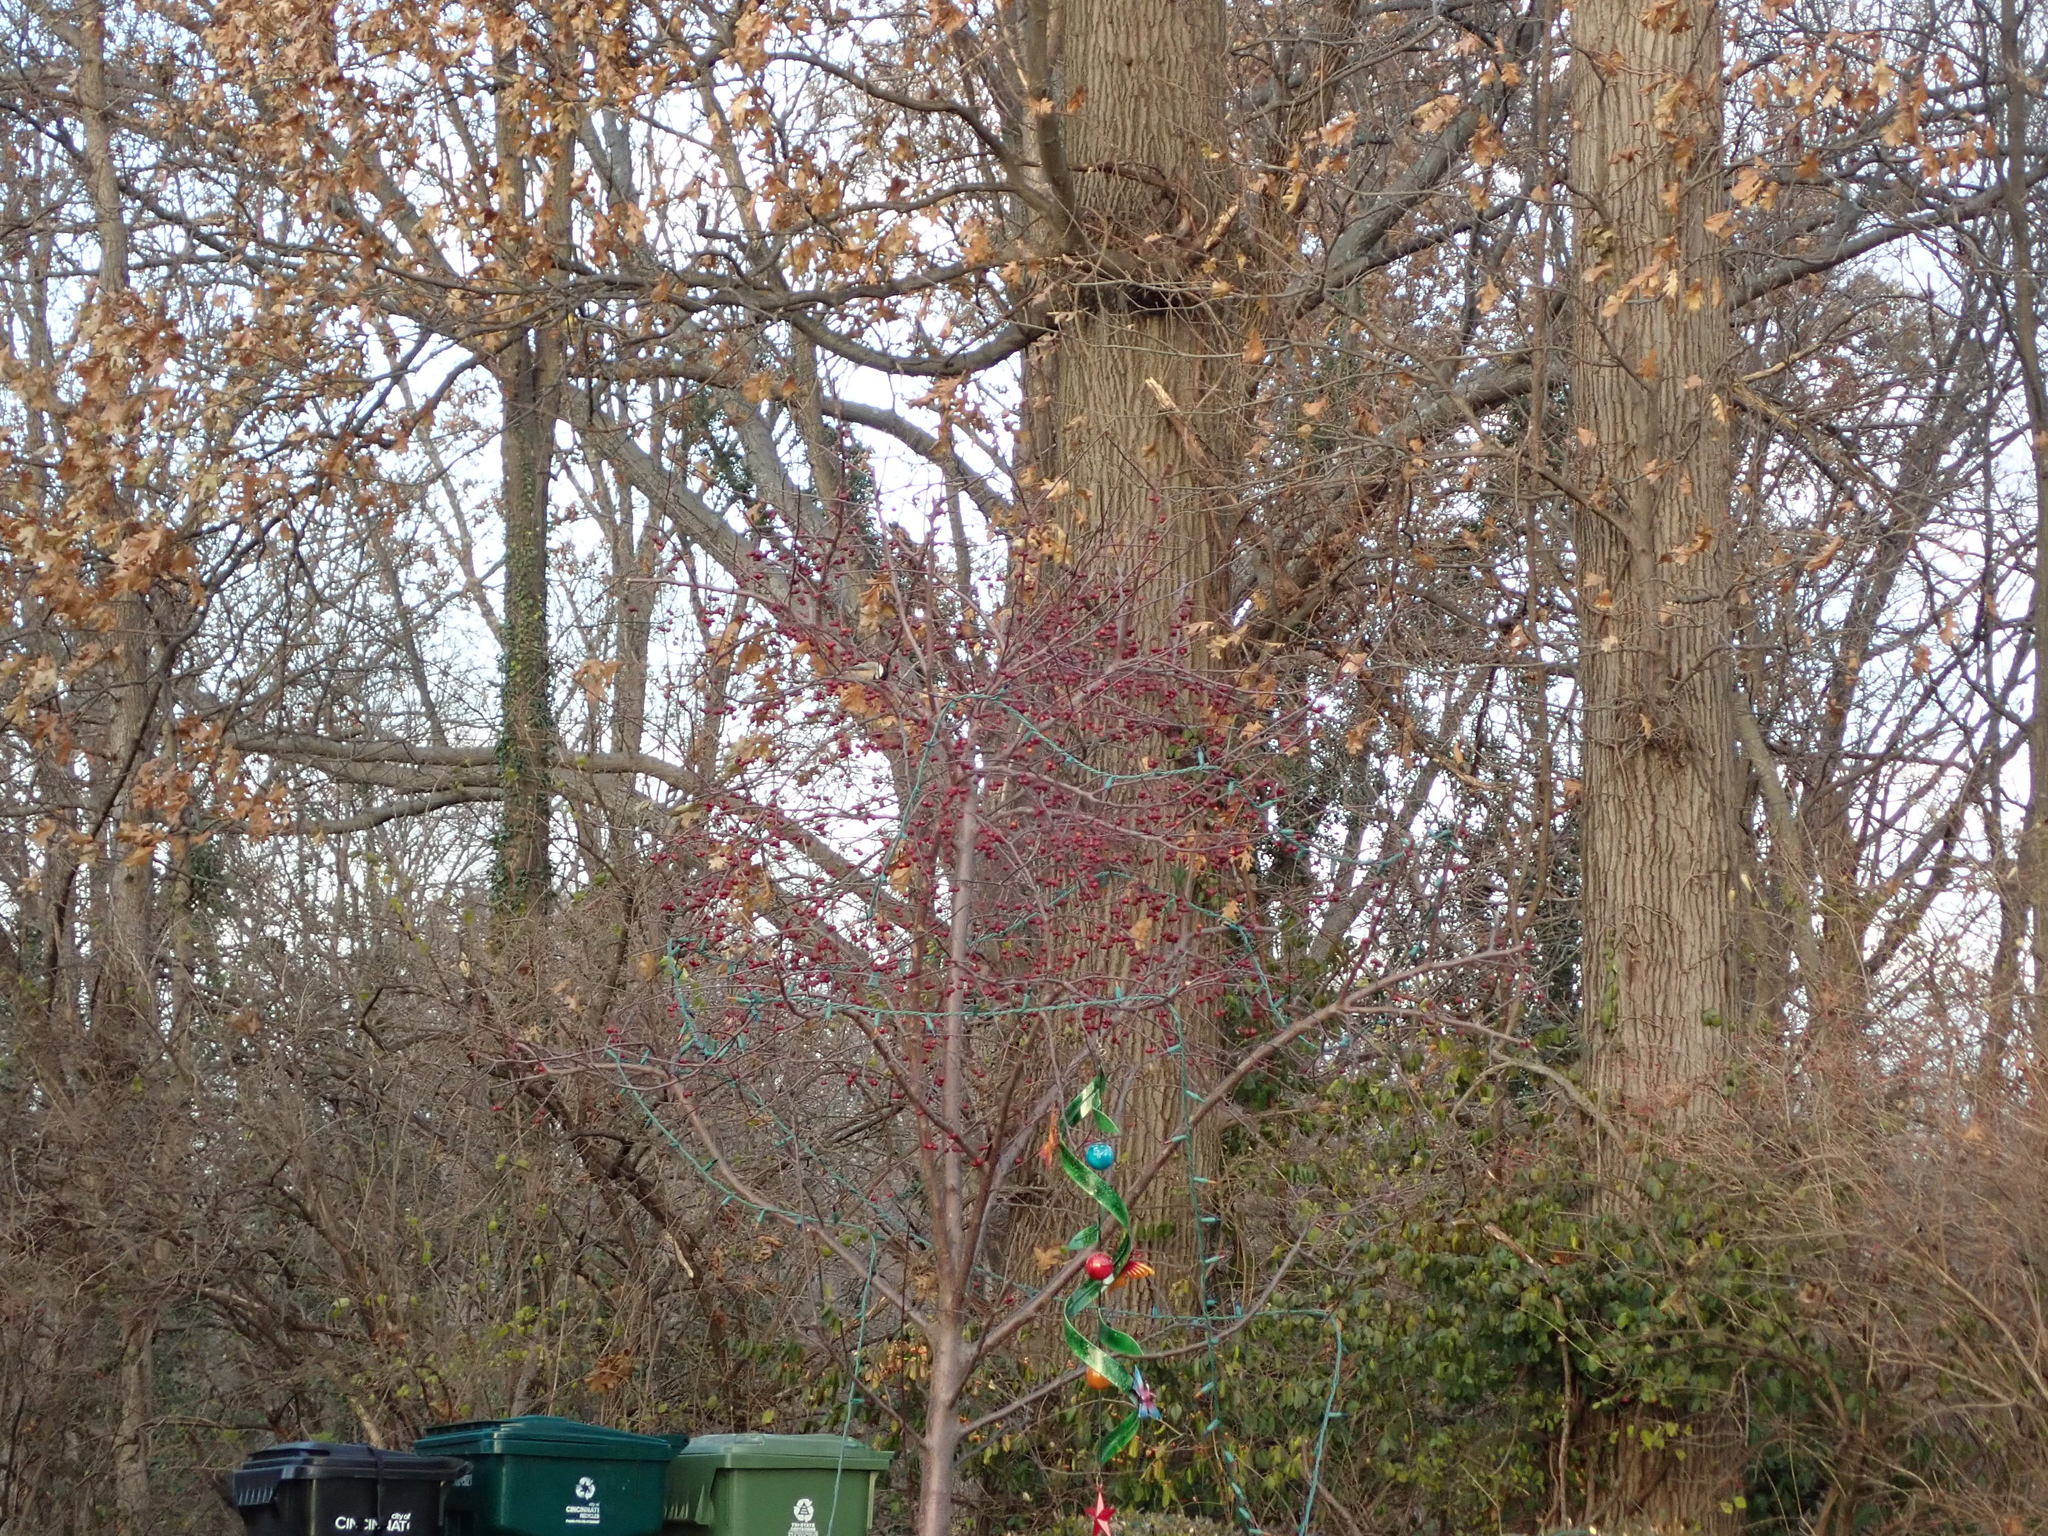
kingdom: Animalia
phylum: Chordata
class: Aves
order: Passeriformes
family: Paridae
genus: Poecile
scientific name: Poecile carolinensis
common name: Carolina chickadee
